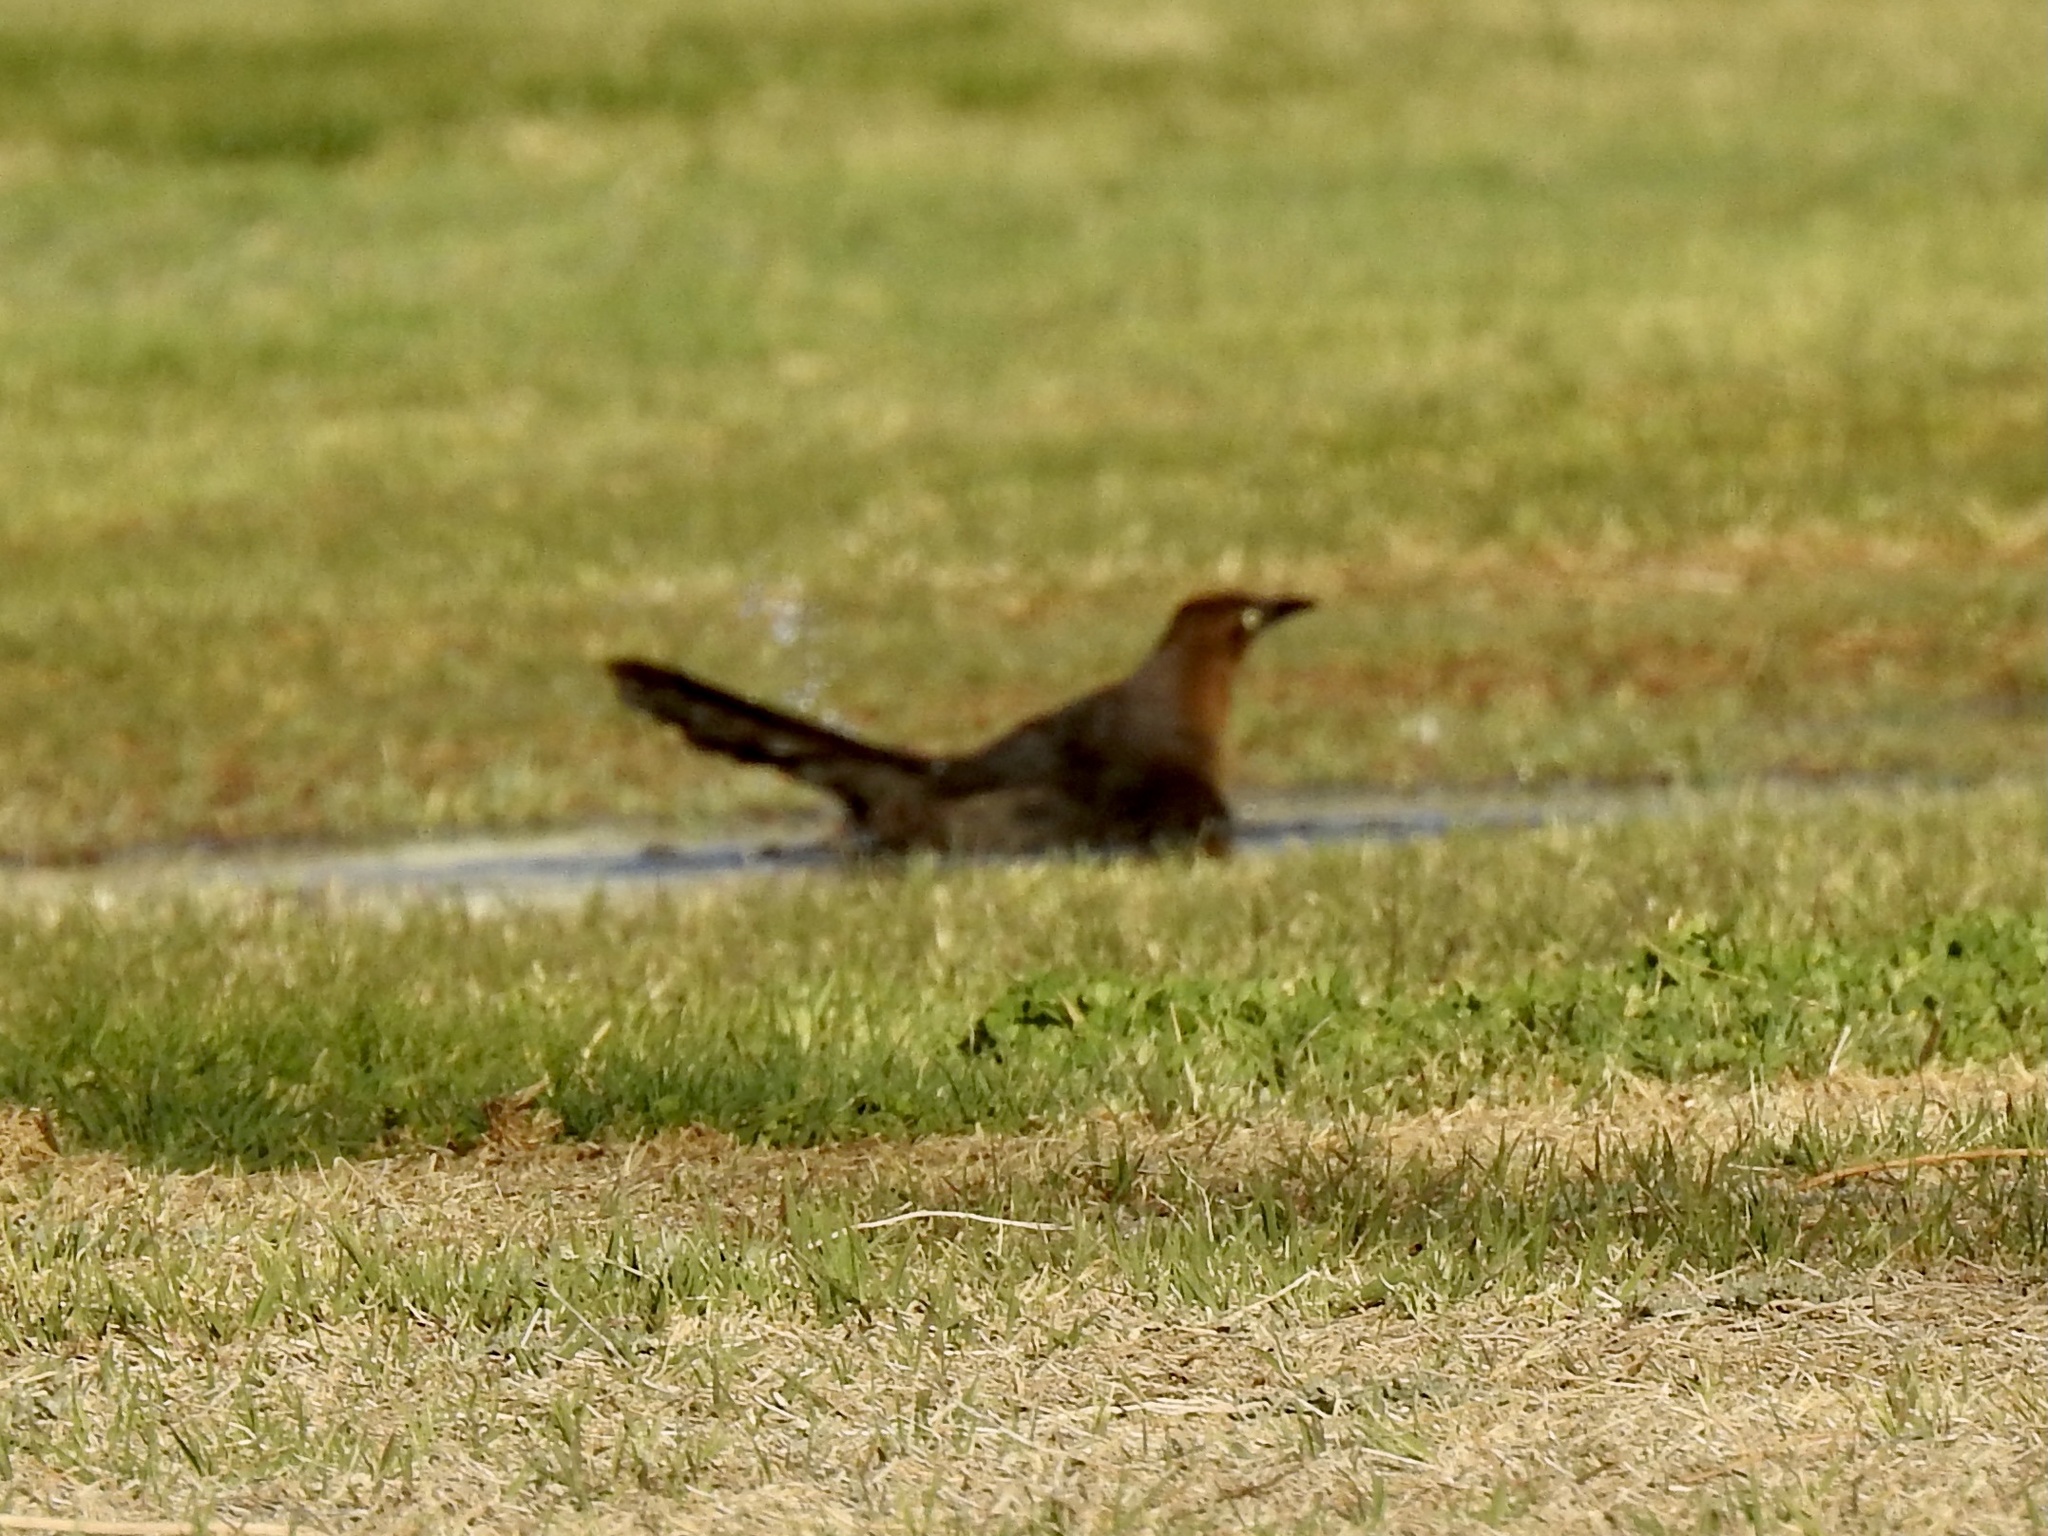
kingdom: Animalia
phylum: Chordata
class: Aves
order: Passeriformes
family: Icteridae
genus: Quiscalus
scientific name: Quiscalus mexicanus
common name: Great-tailed grackle
